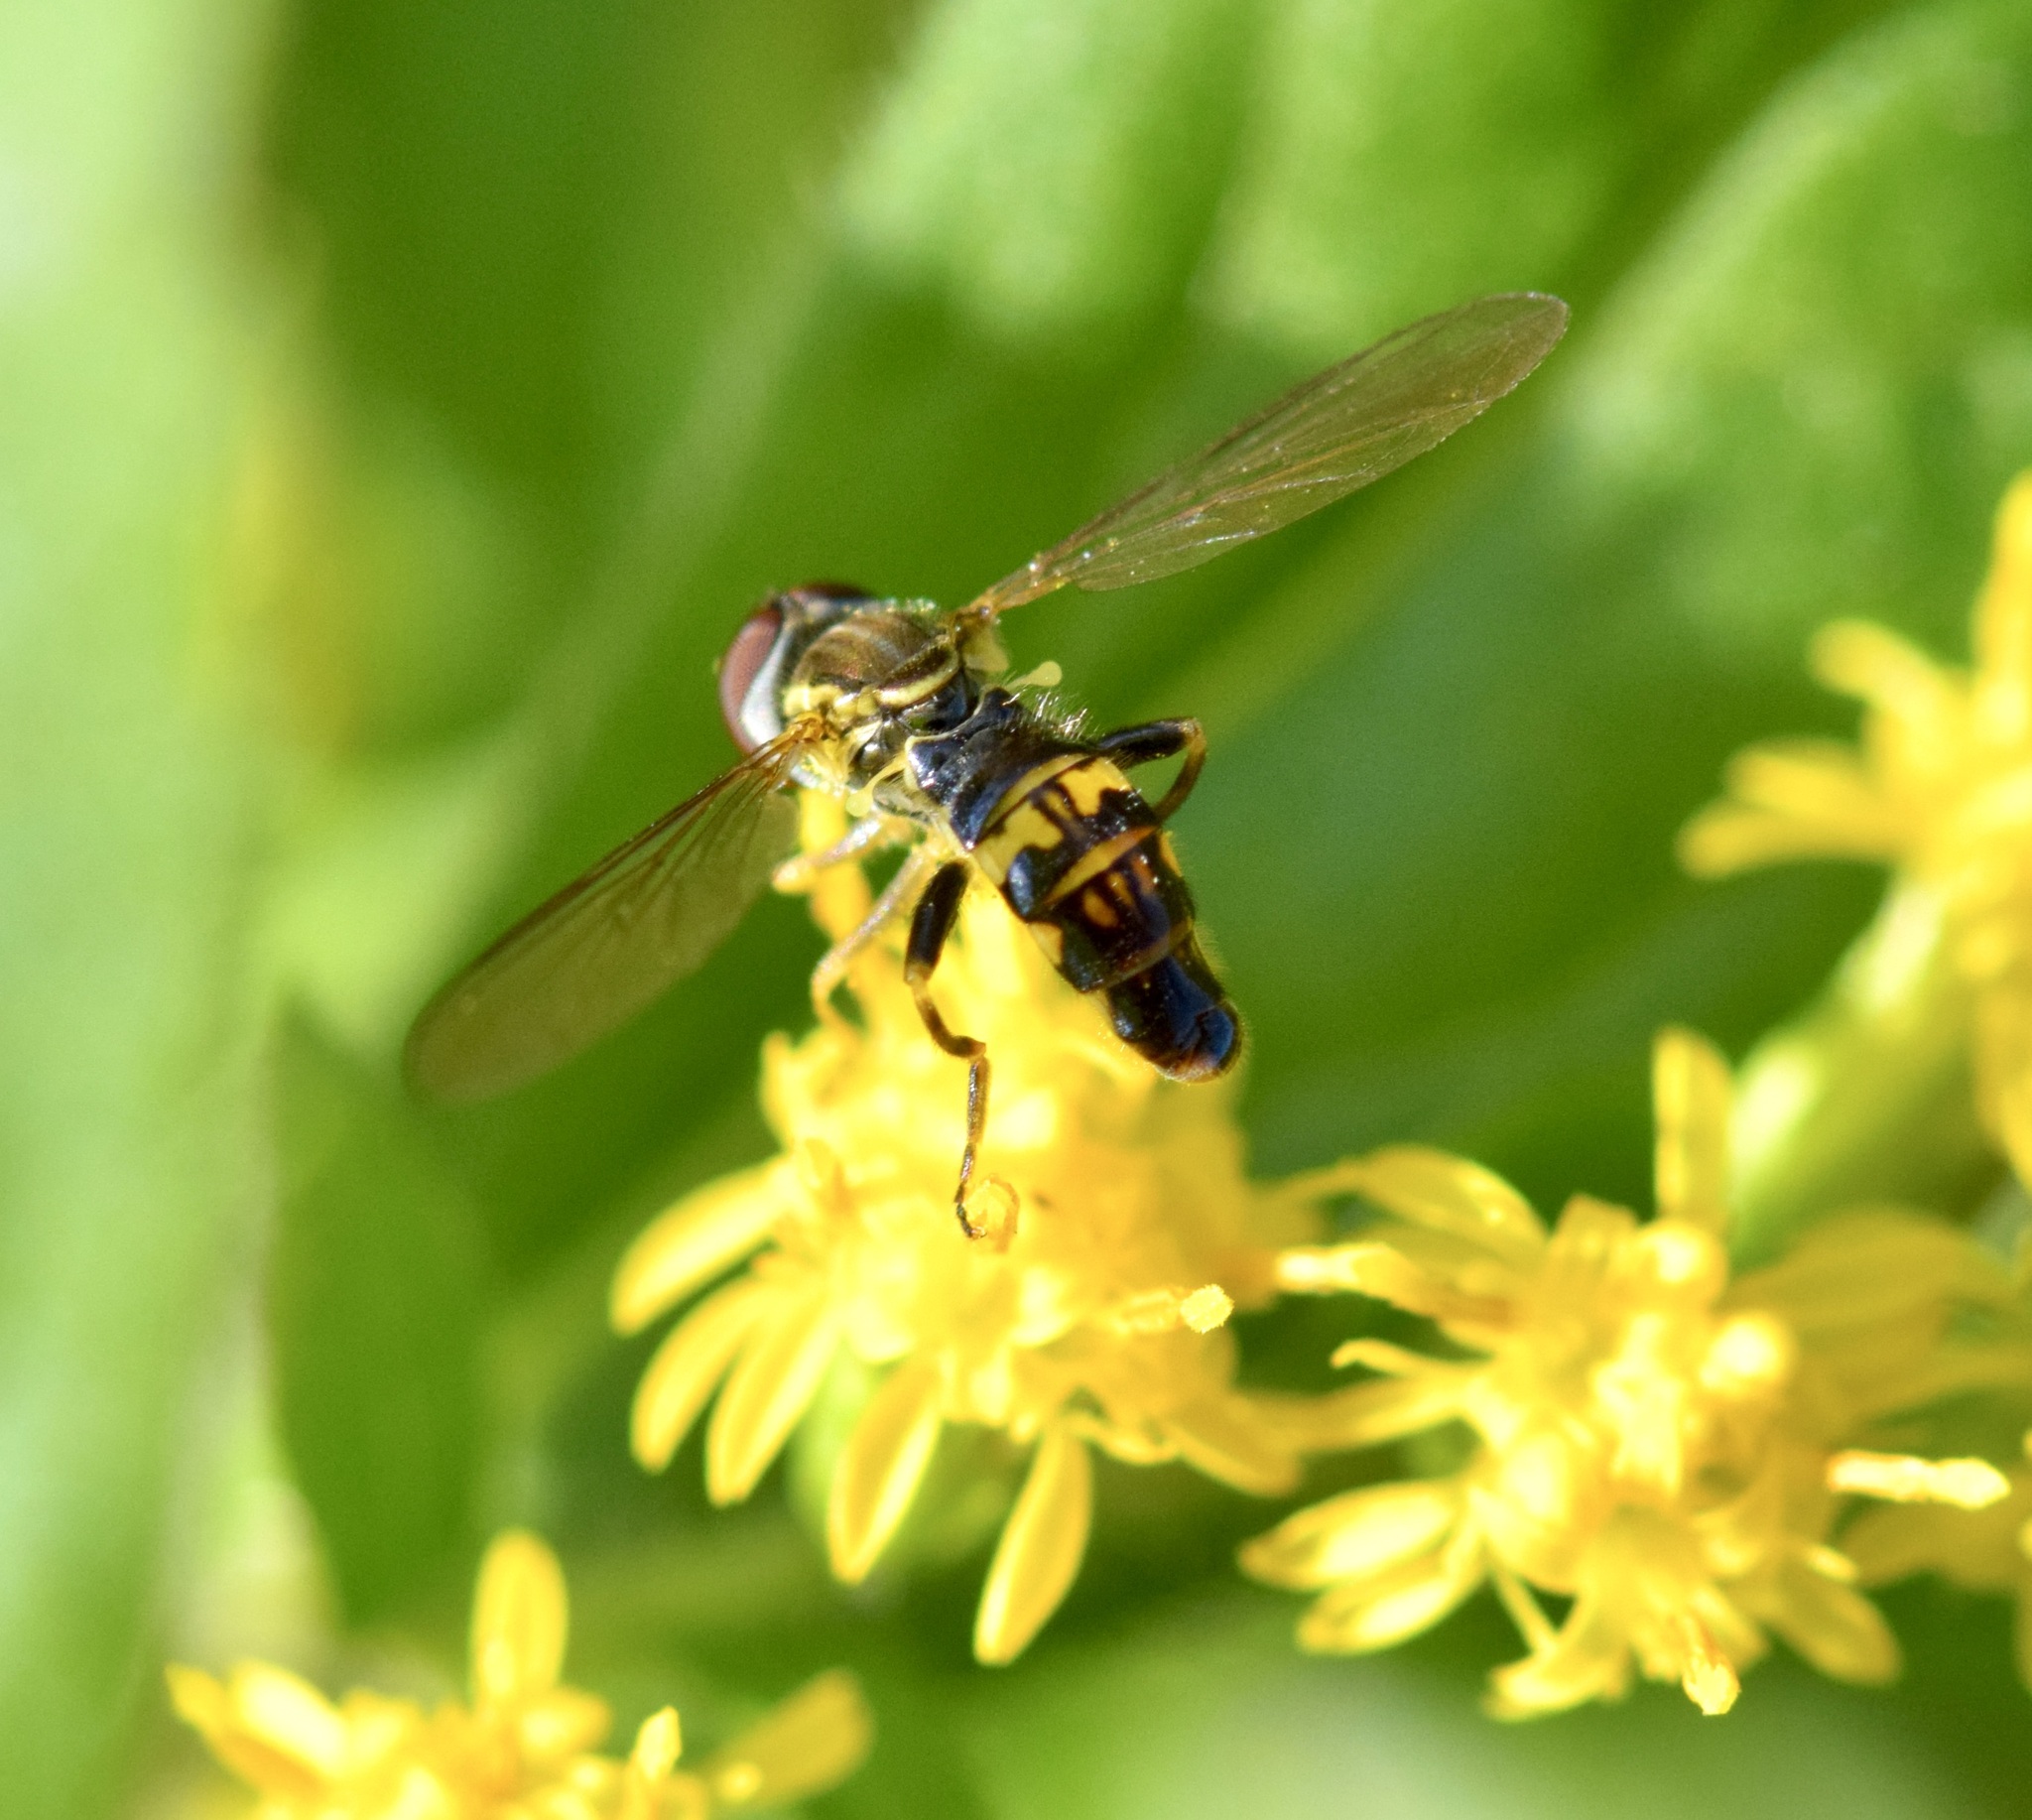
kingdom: Animalia
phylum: Arthropoda
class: Insecta
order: Diptera
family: Syrphidae
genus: Toxomerus
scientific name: Toxomerus geminatus
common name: Eastern calligrapher
